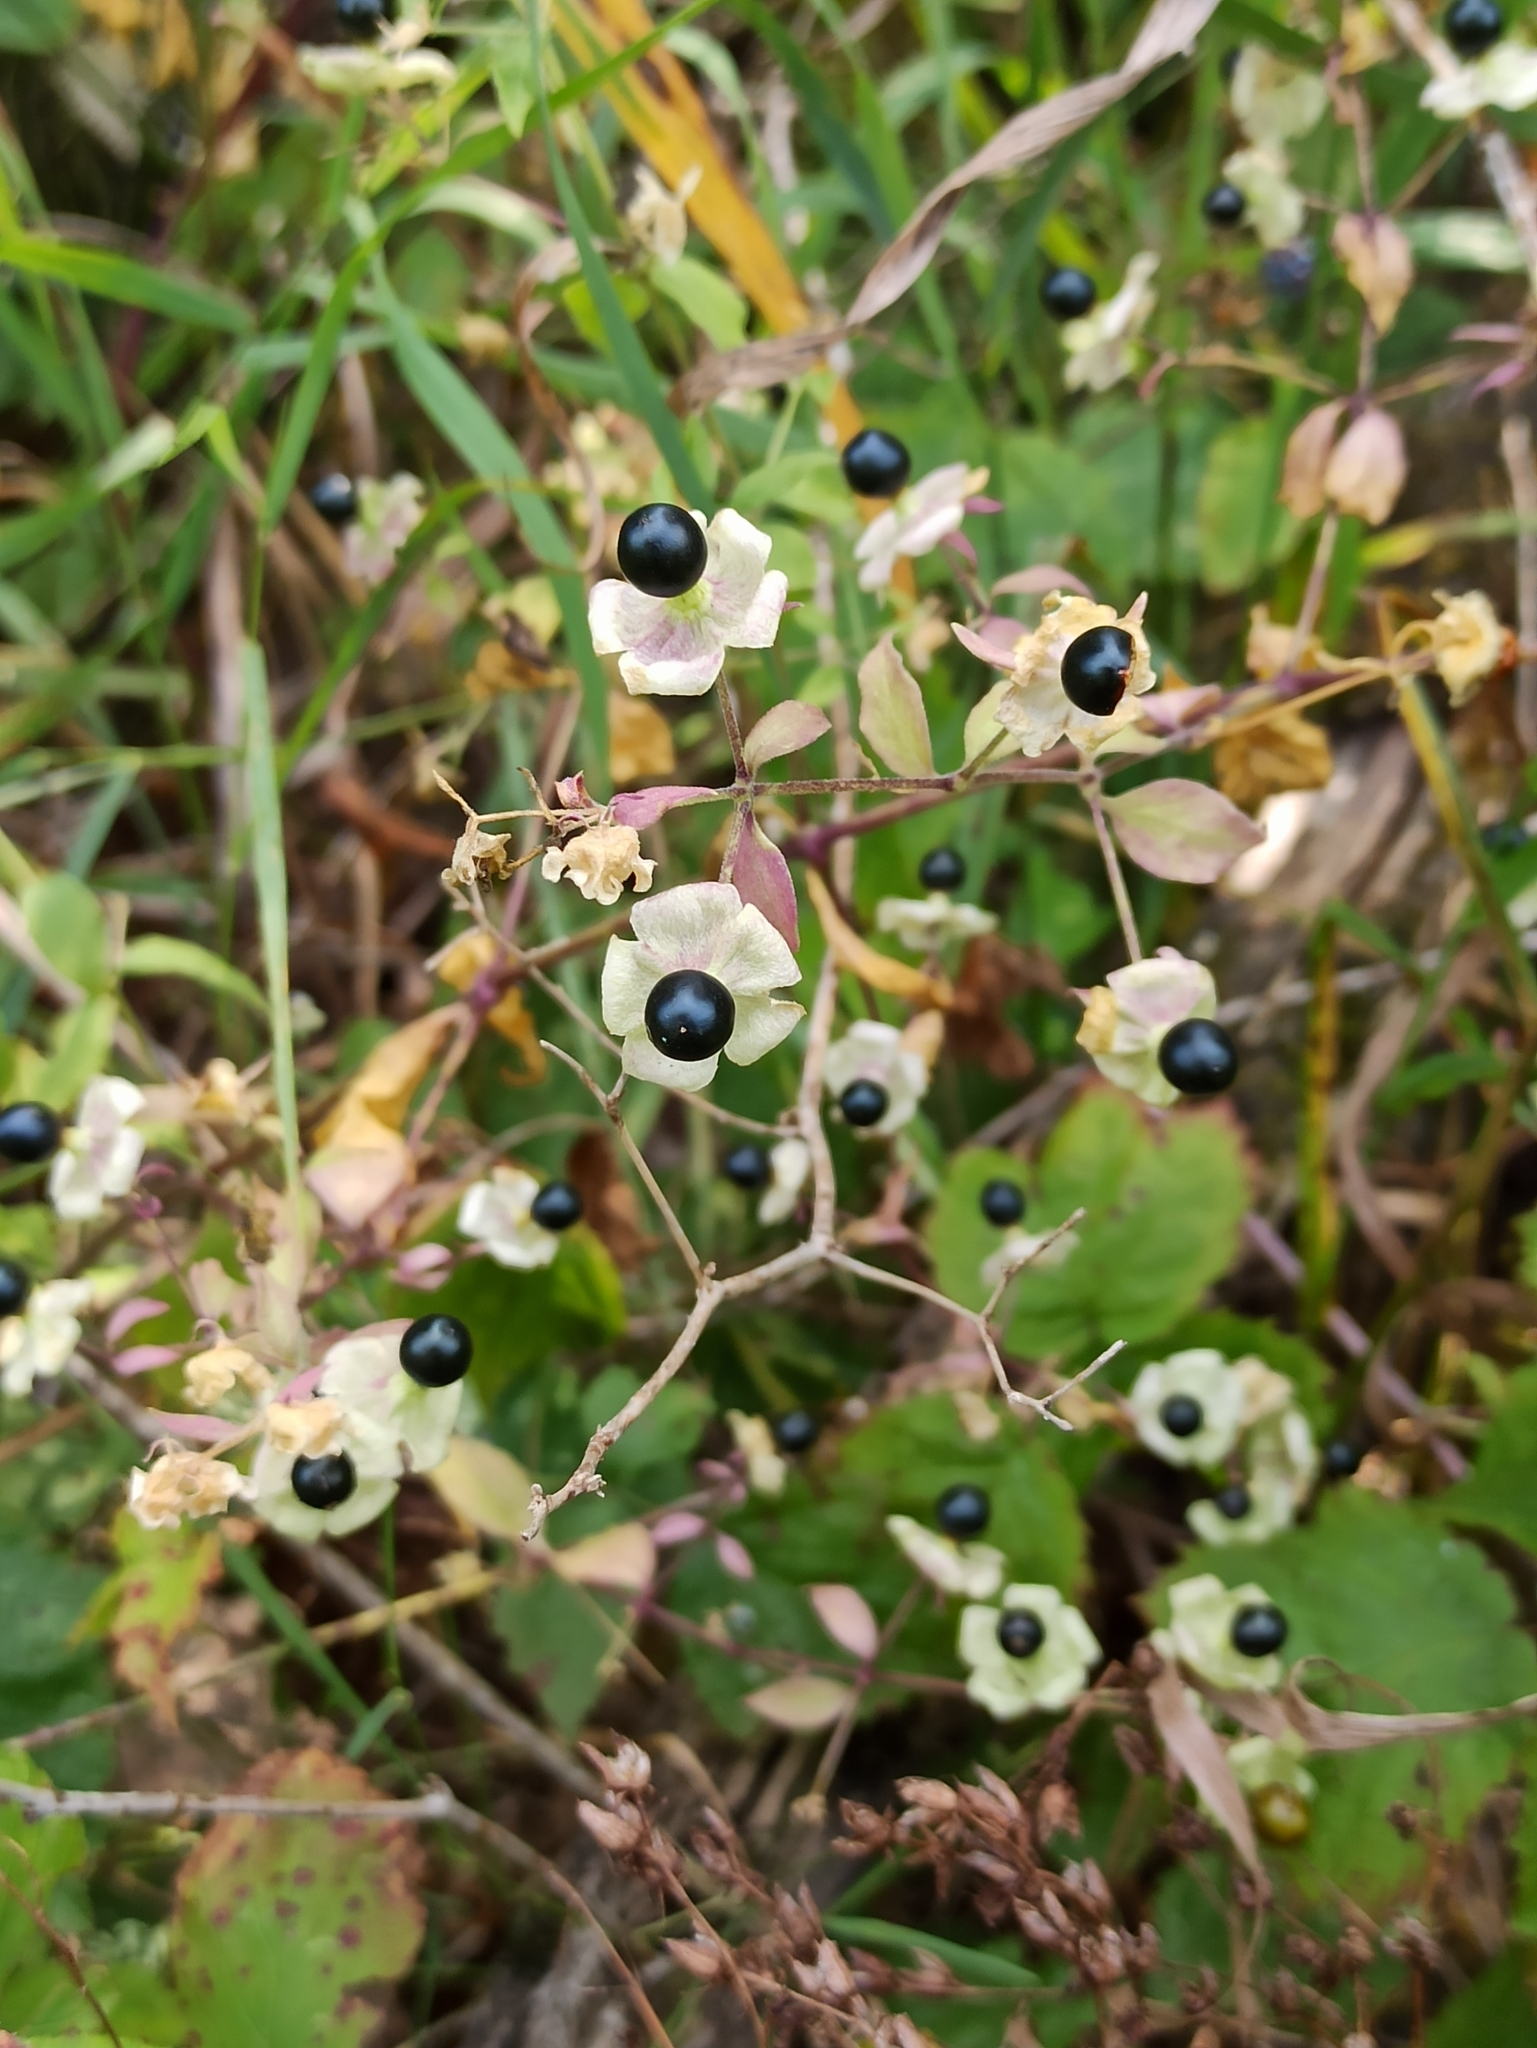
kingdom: Plantae
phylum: Tracheophyta
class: Magnoliopsida
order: Caryophyllales
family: Caryophyllaceae
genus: Silene
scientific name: Silene baccifera
